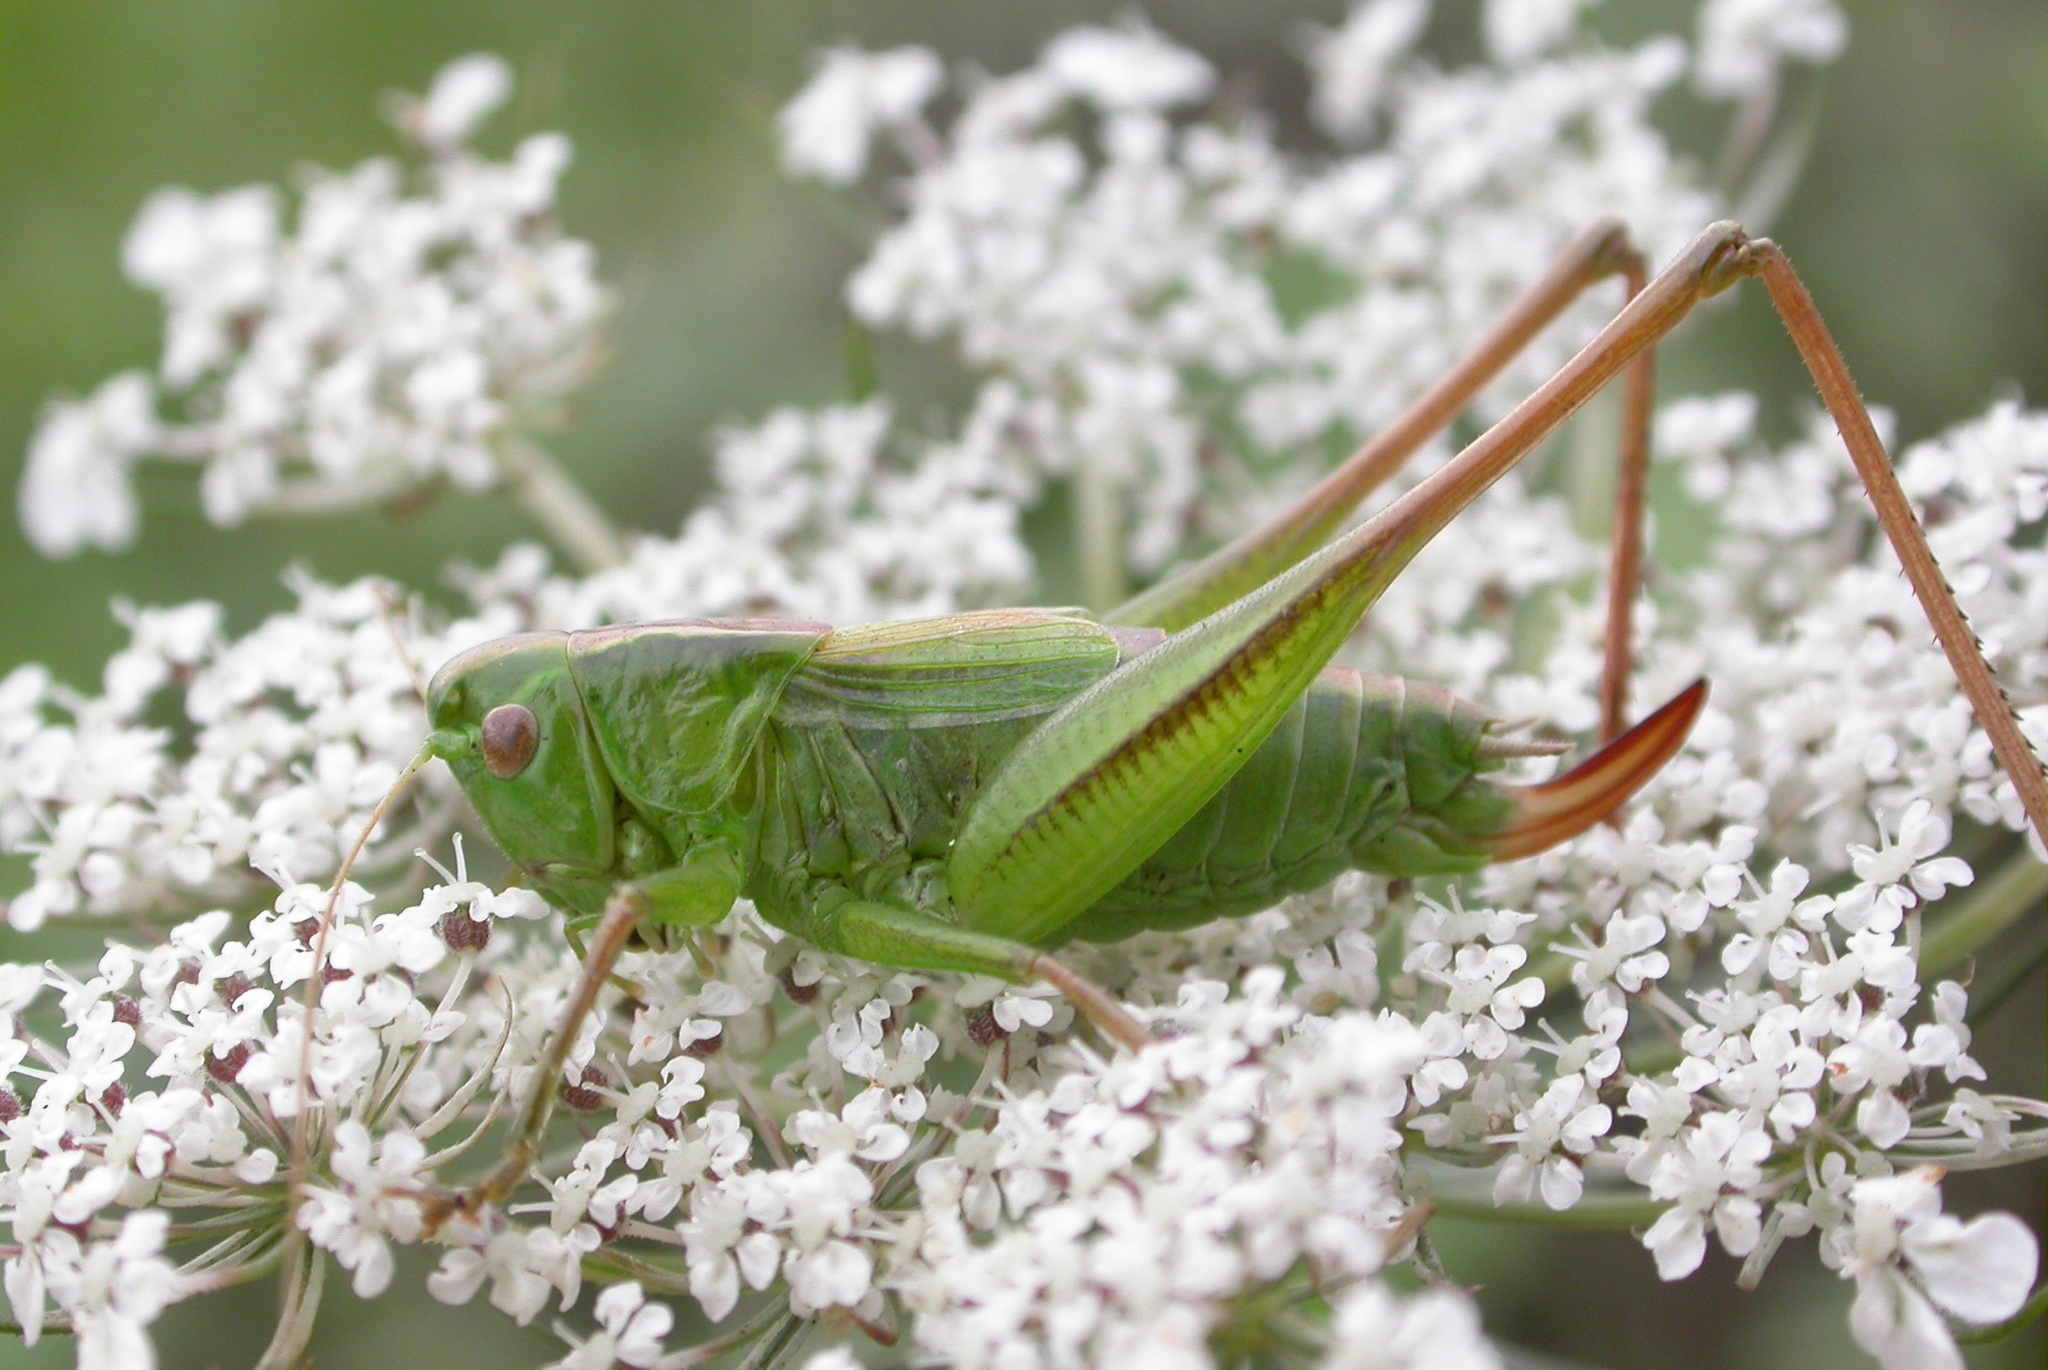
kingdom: Animalia
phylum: Arthropoda
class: Insecta
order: Orthoptera
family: Tettigoniidae
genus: Bicolorana
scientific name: Bicolorana bicolor
